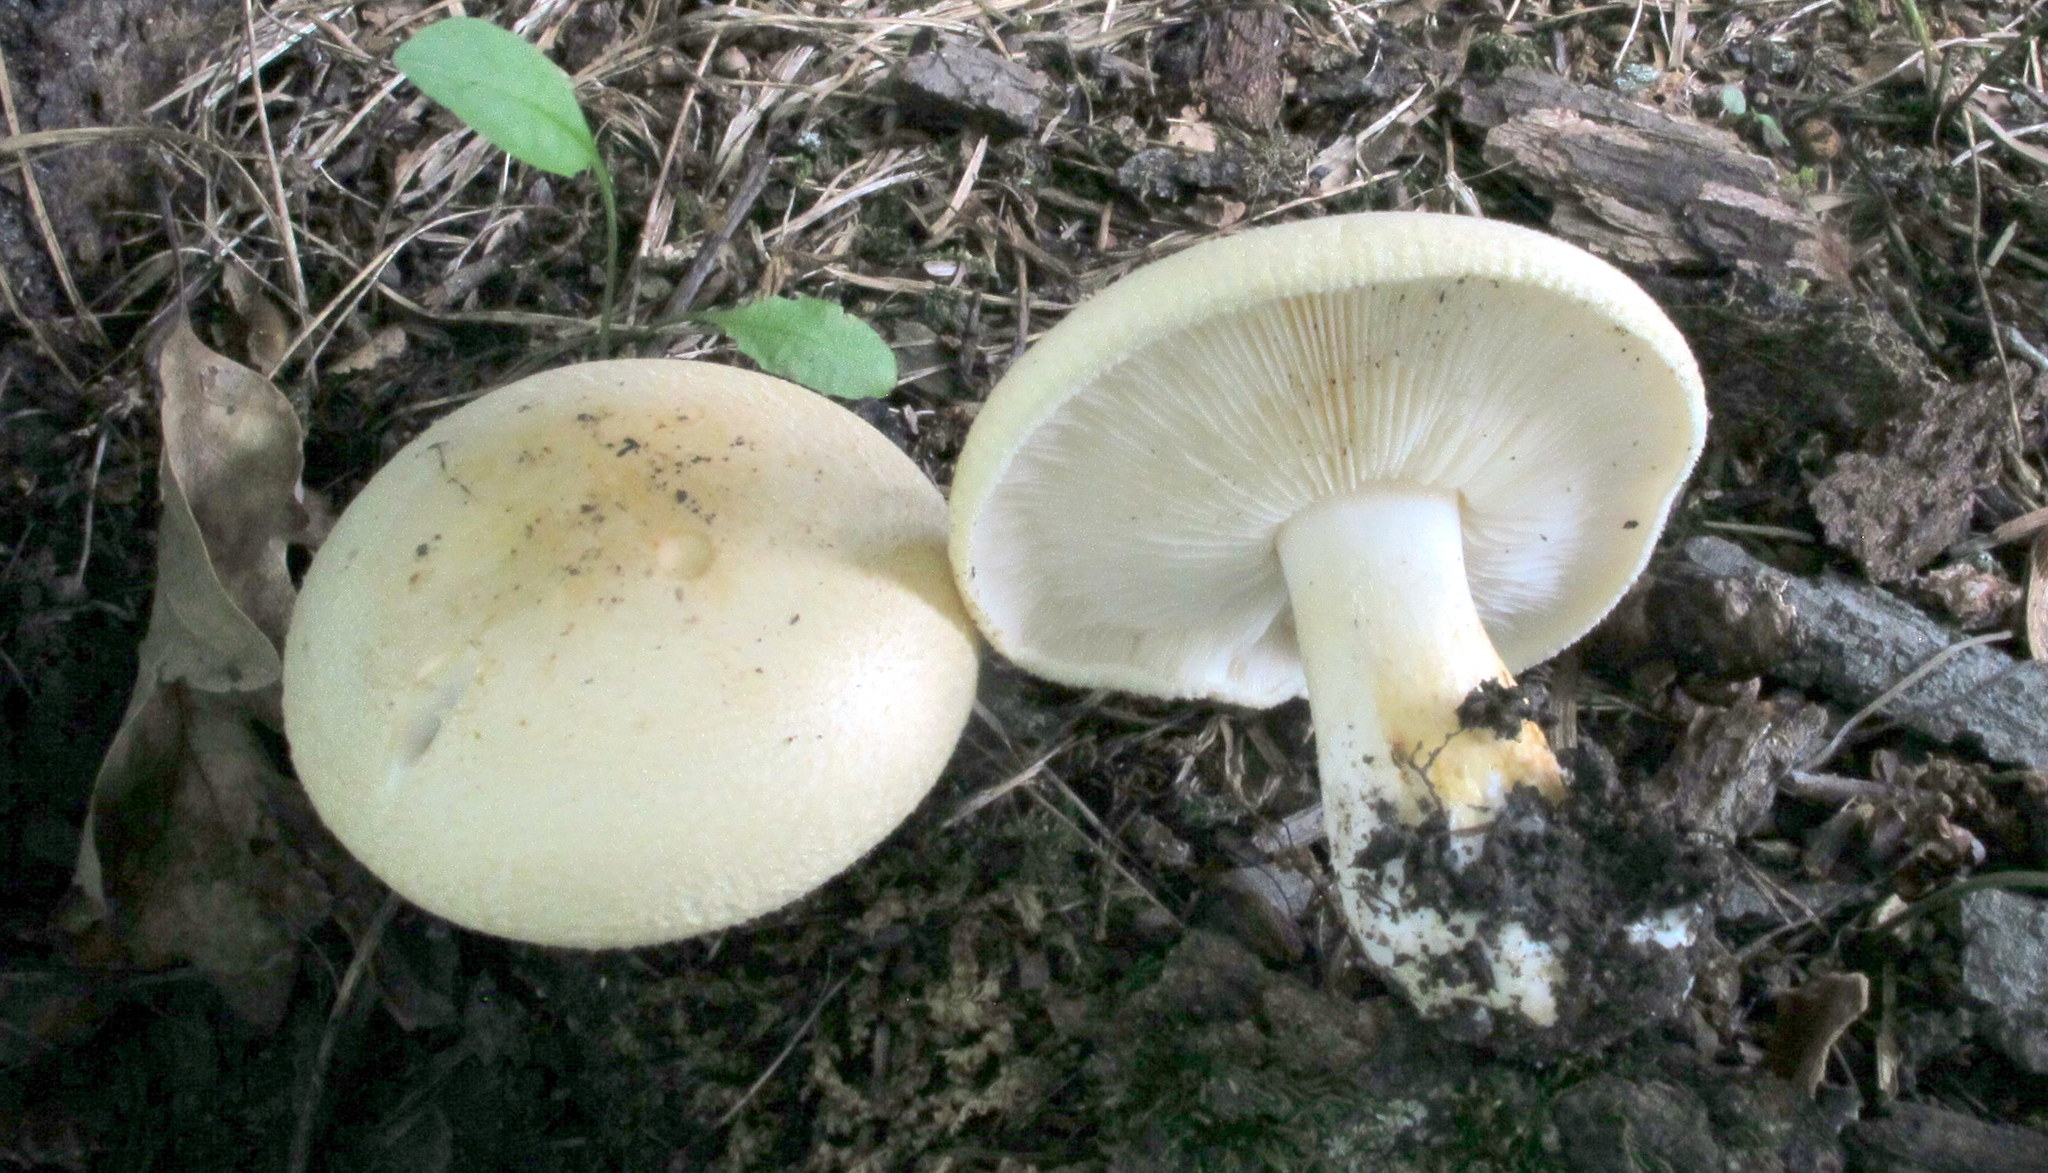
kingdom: Fungi
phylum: Basidiomycota
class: Agaricomycetes
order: Russulales
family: Russulaceae
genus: Russula
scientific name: Russula ballouii
